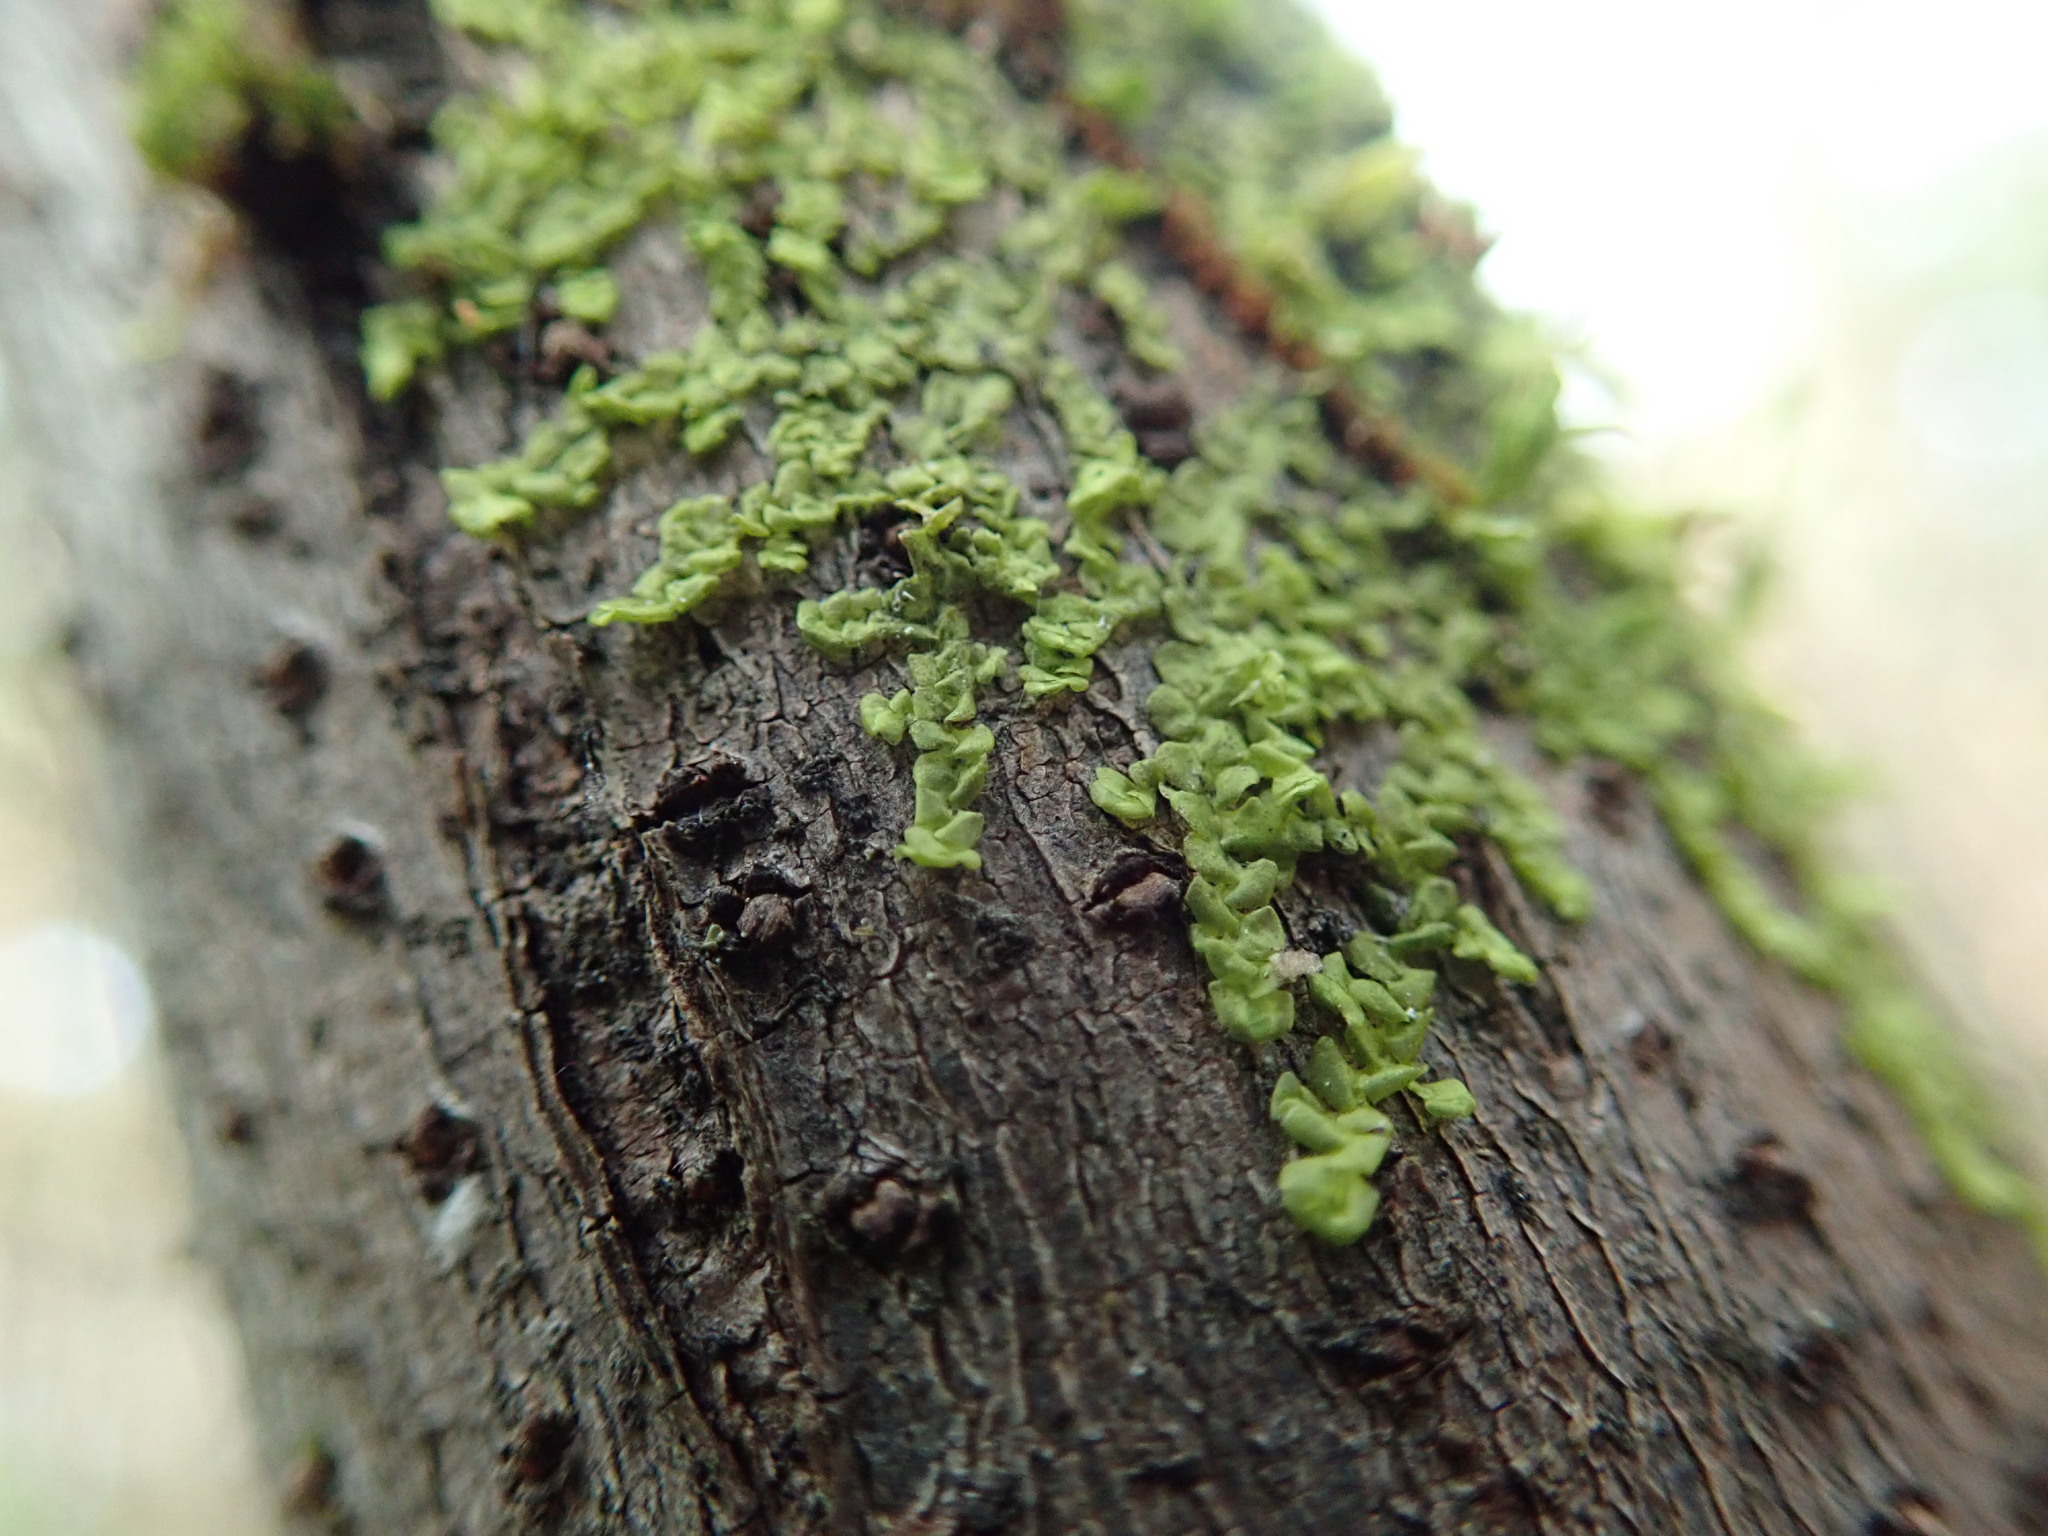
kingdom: Plantae
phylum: Marchantiophyta
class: Jungermanniopsida
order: Porellales
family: Radulaceae
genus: Radula
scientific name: Radula complanata
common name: Flat-leaved scalewort
